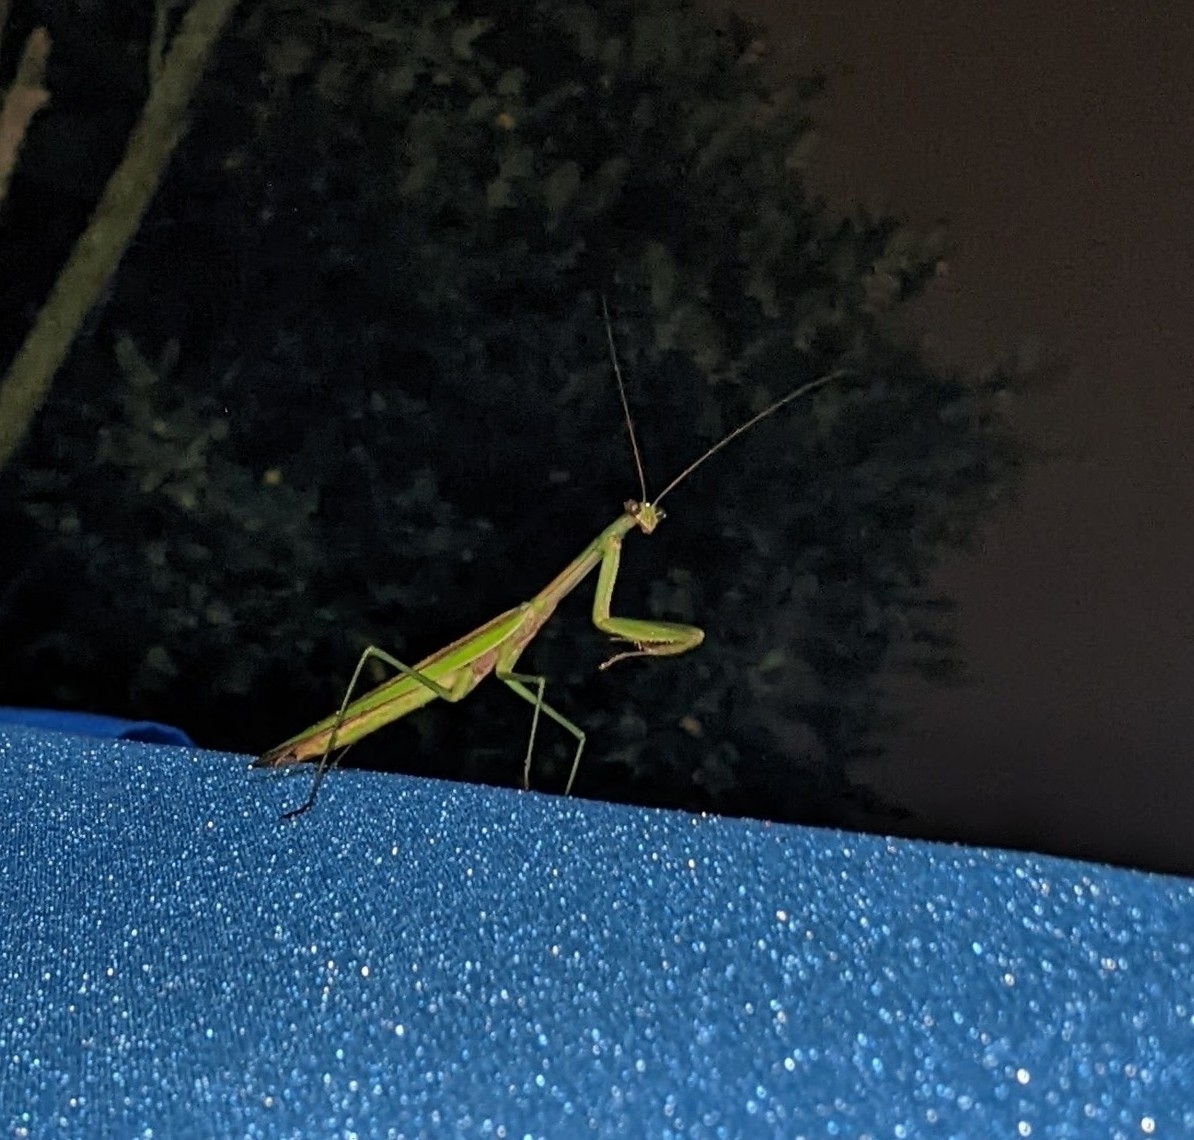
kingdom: Animalia
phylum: Arthropoda
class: Insecta
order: Mantodea
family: Mantidae
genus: Tenodera
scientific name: Tenodera sinensis
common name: Chinese mantis
